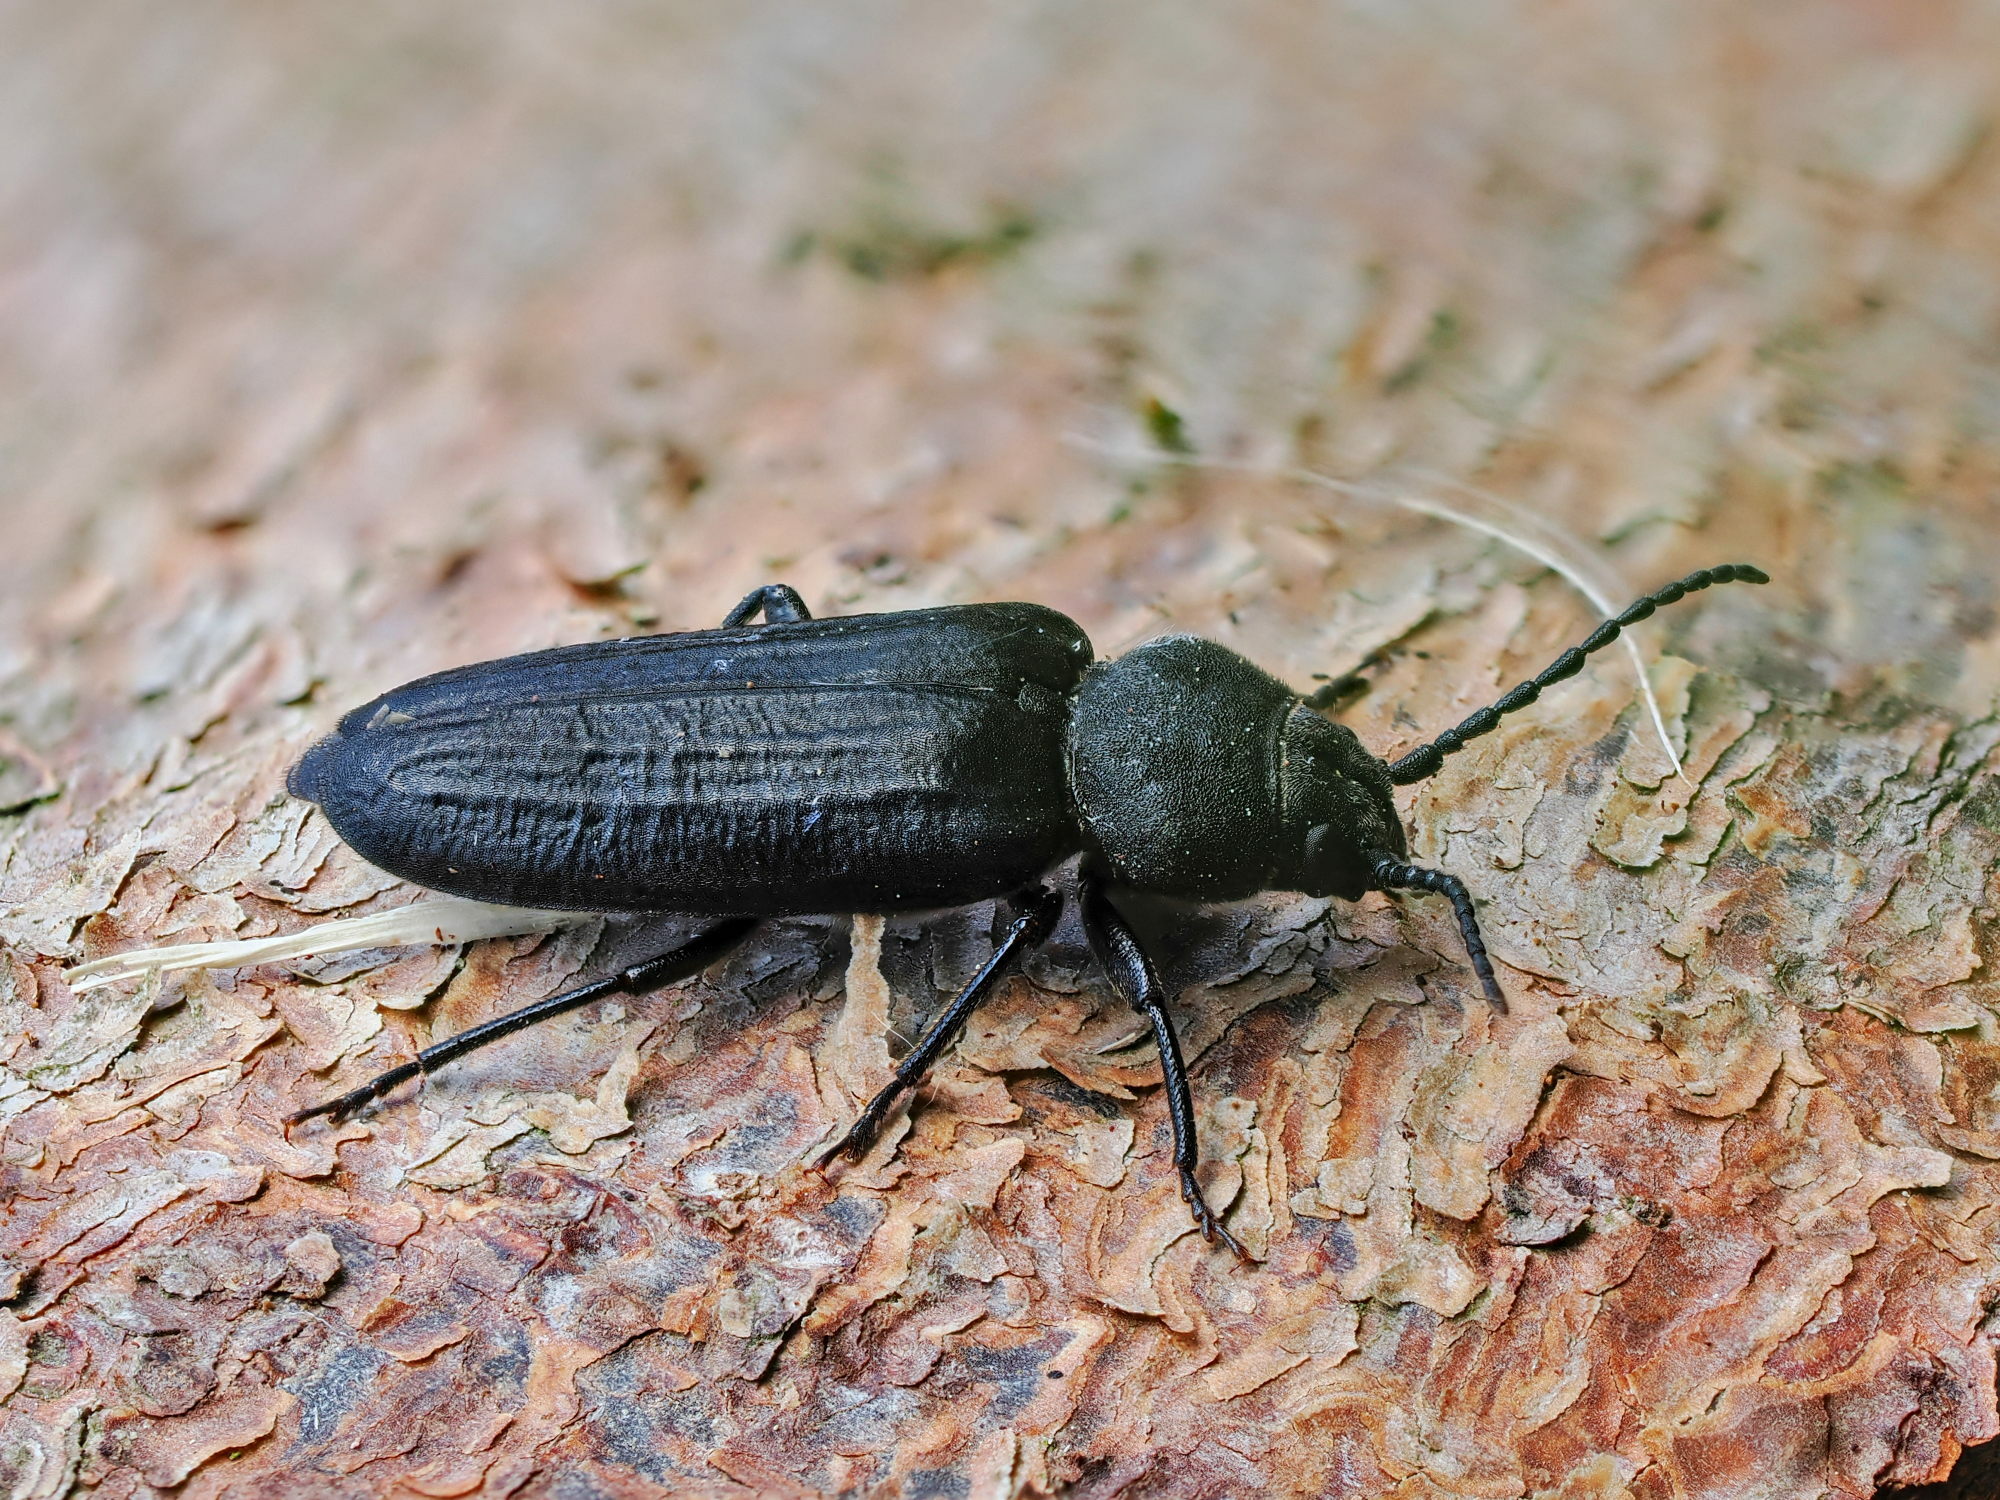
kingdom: Animalia
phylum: Arthropoda
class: Insecta
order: Coleoptera
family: Cerambycidae
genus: Asemum
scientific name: Asemum striatum
